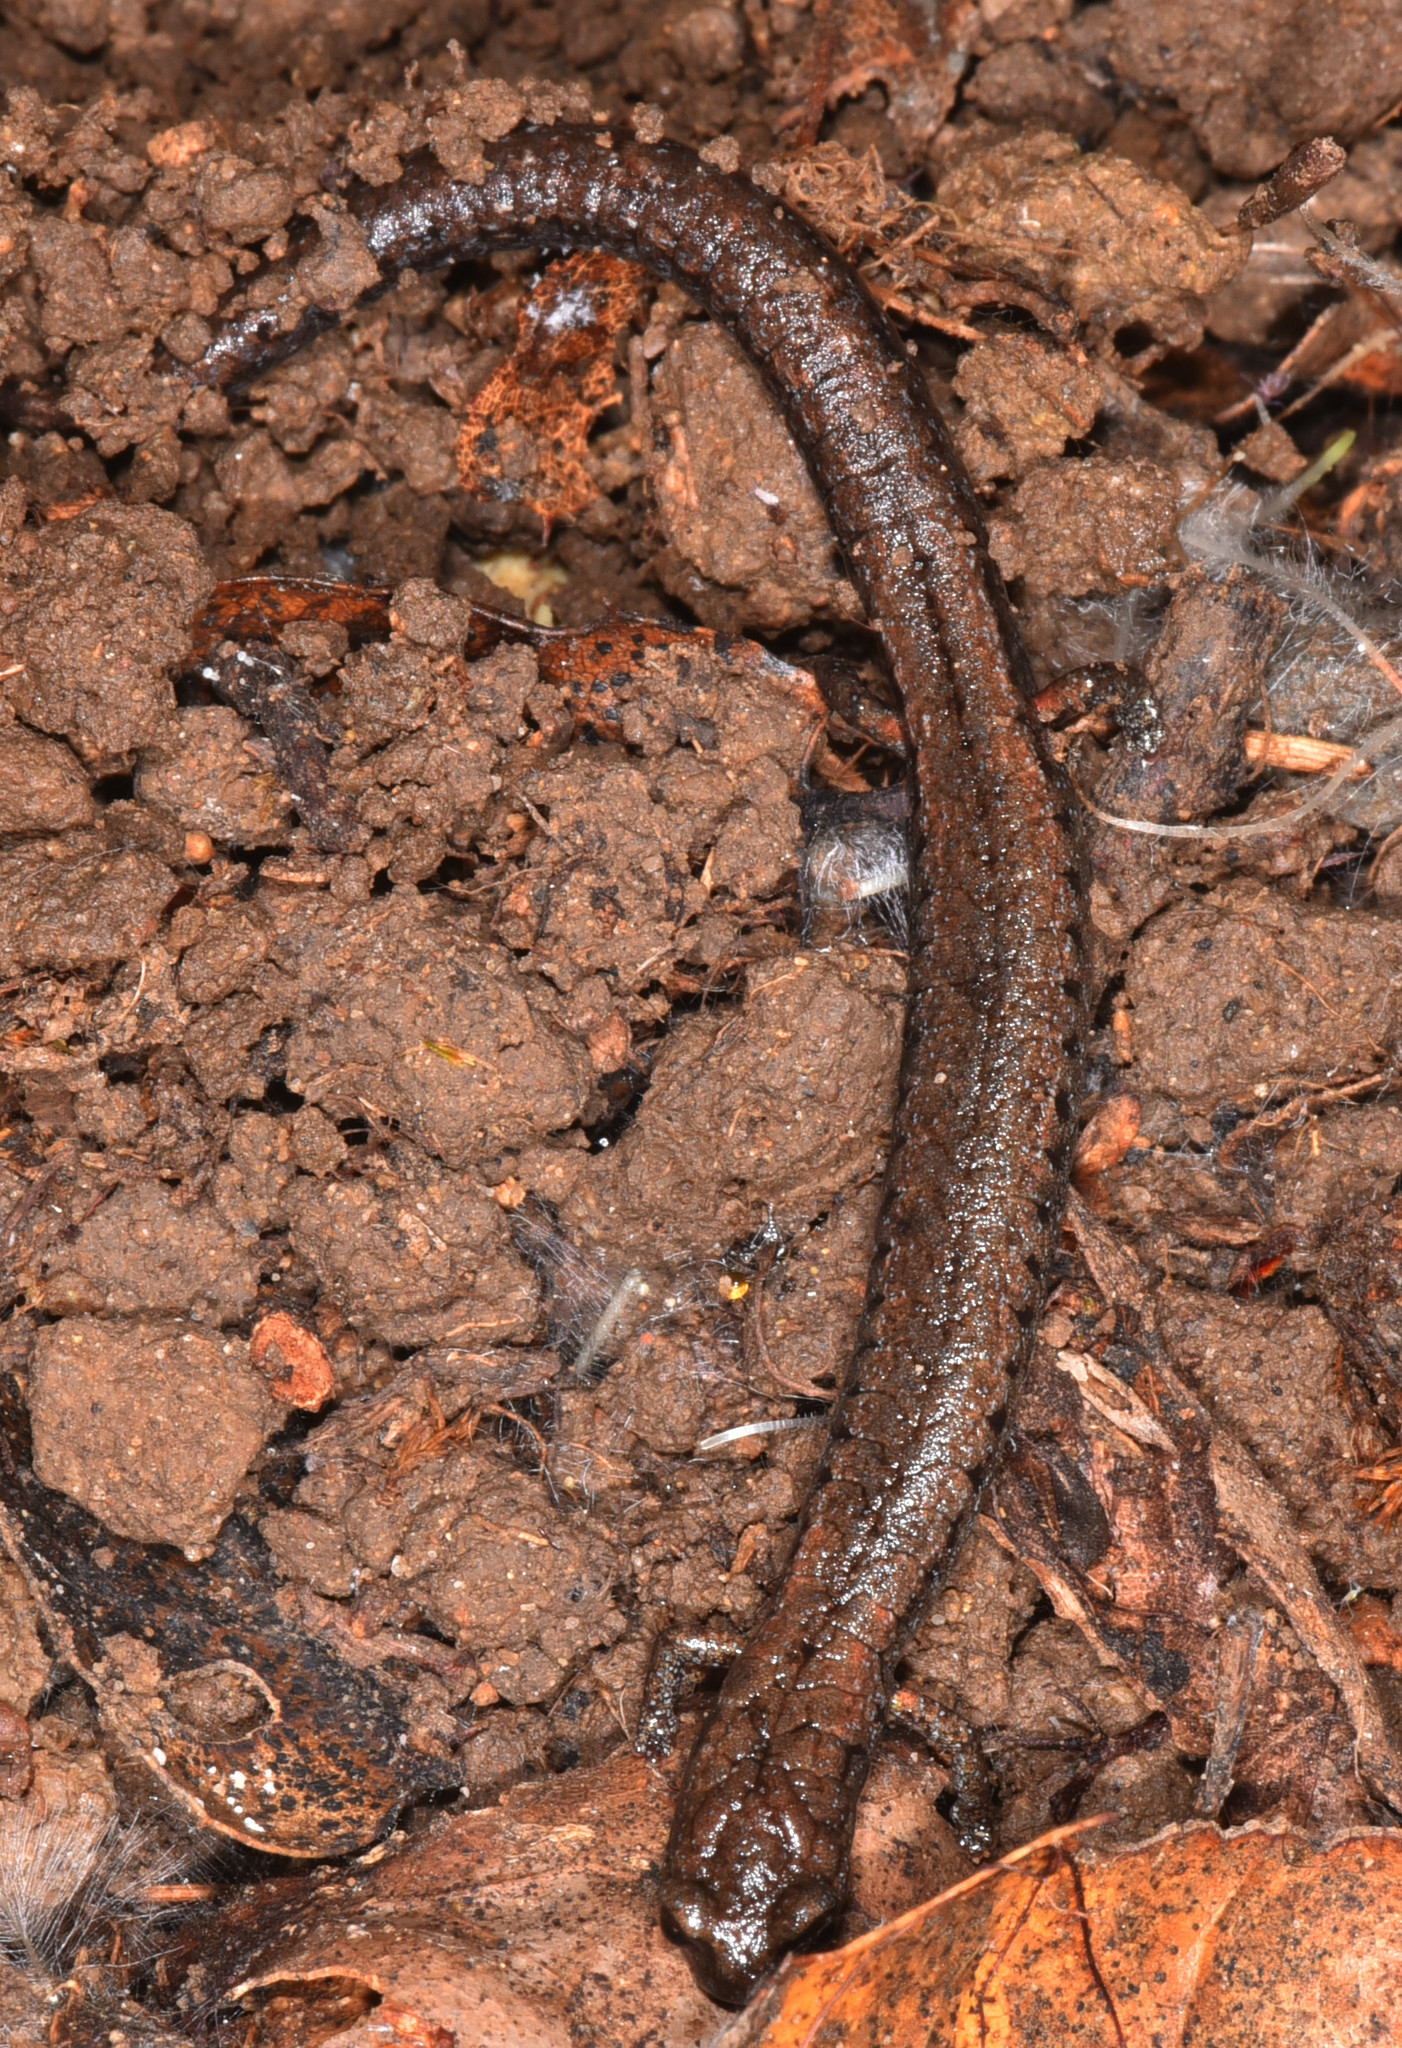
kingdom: Animalia
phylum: Chordata
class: Amphibia
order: Caudata
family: Plethodontidae
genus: Batrachoseps
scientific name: Batrachoseps attenuatus
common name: California slender salamander
